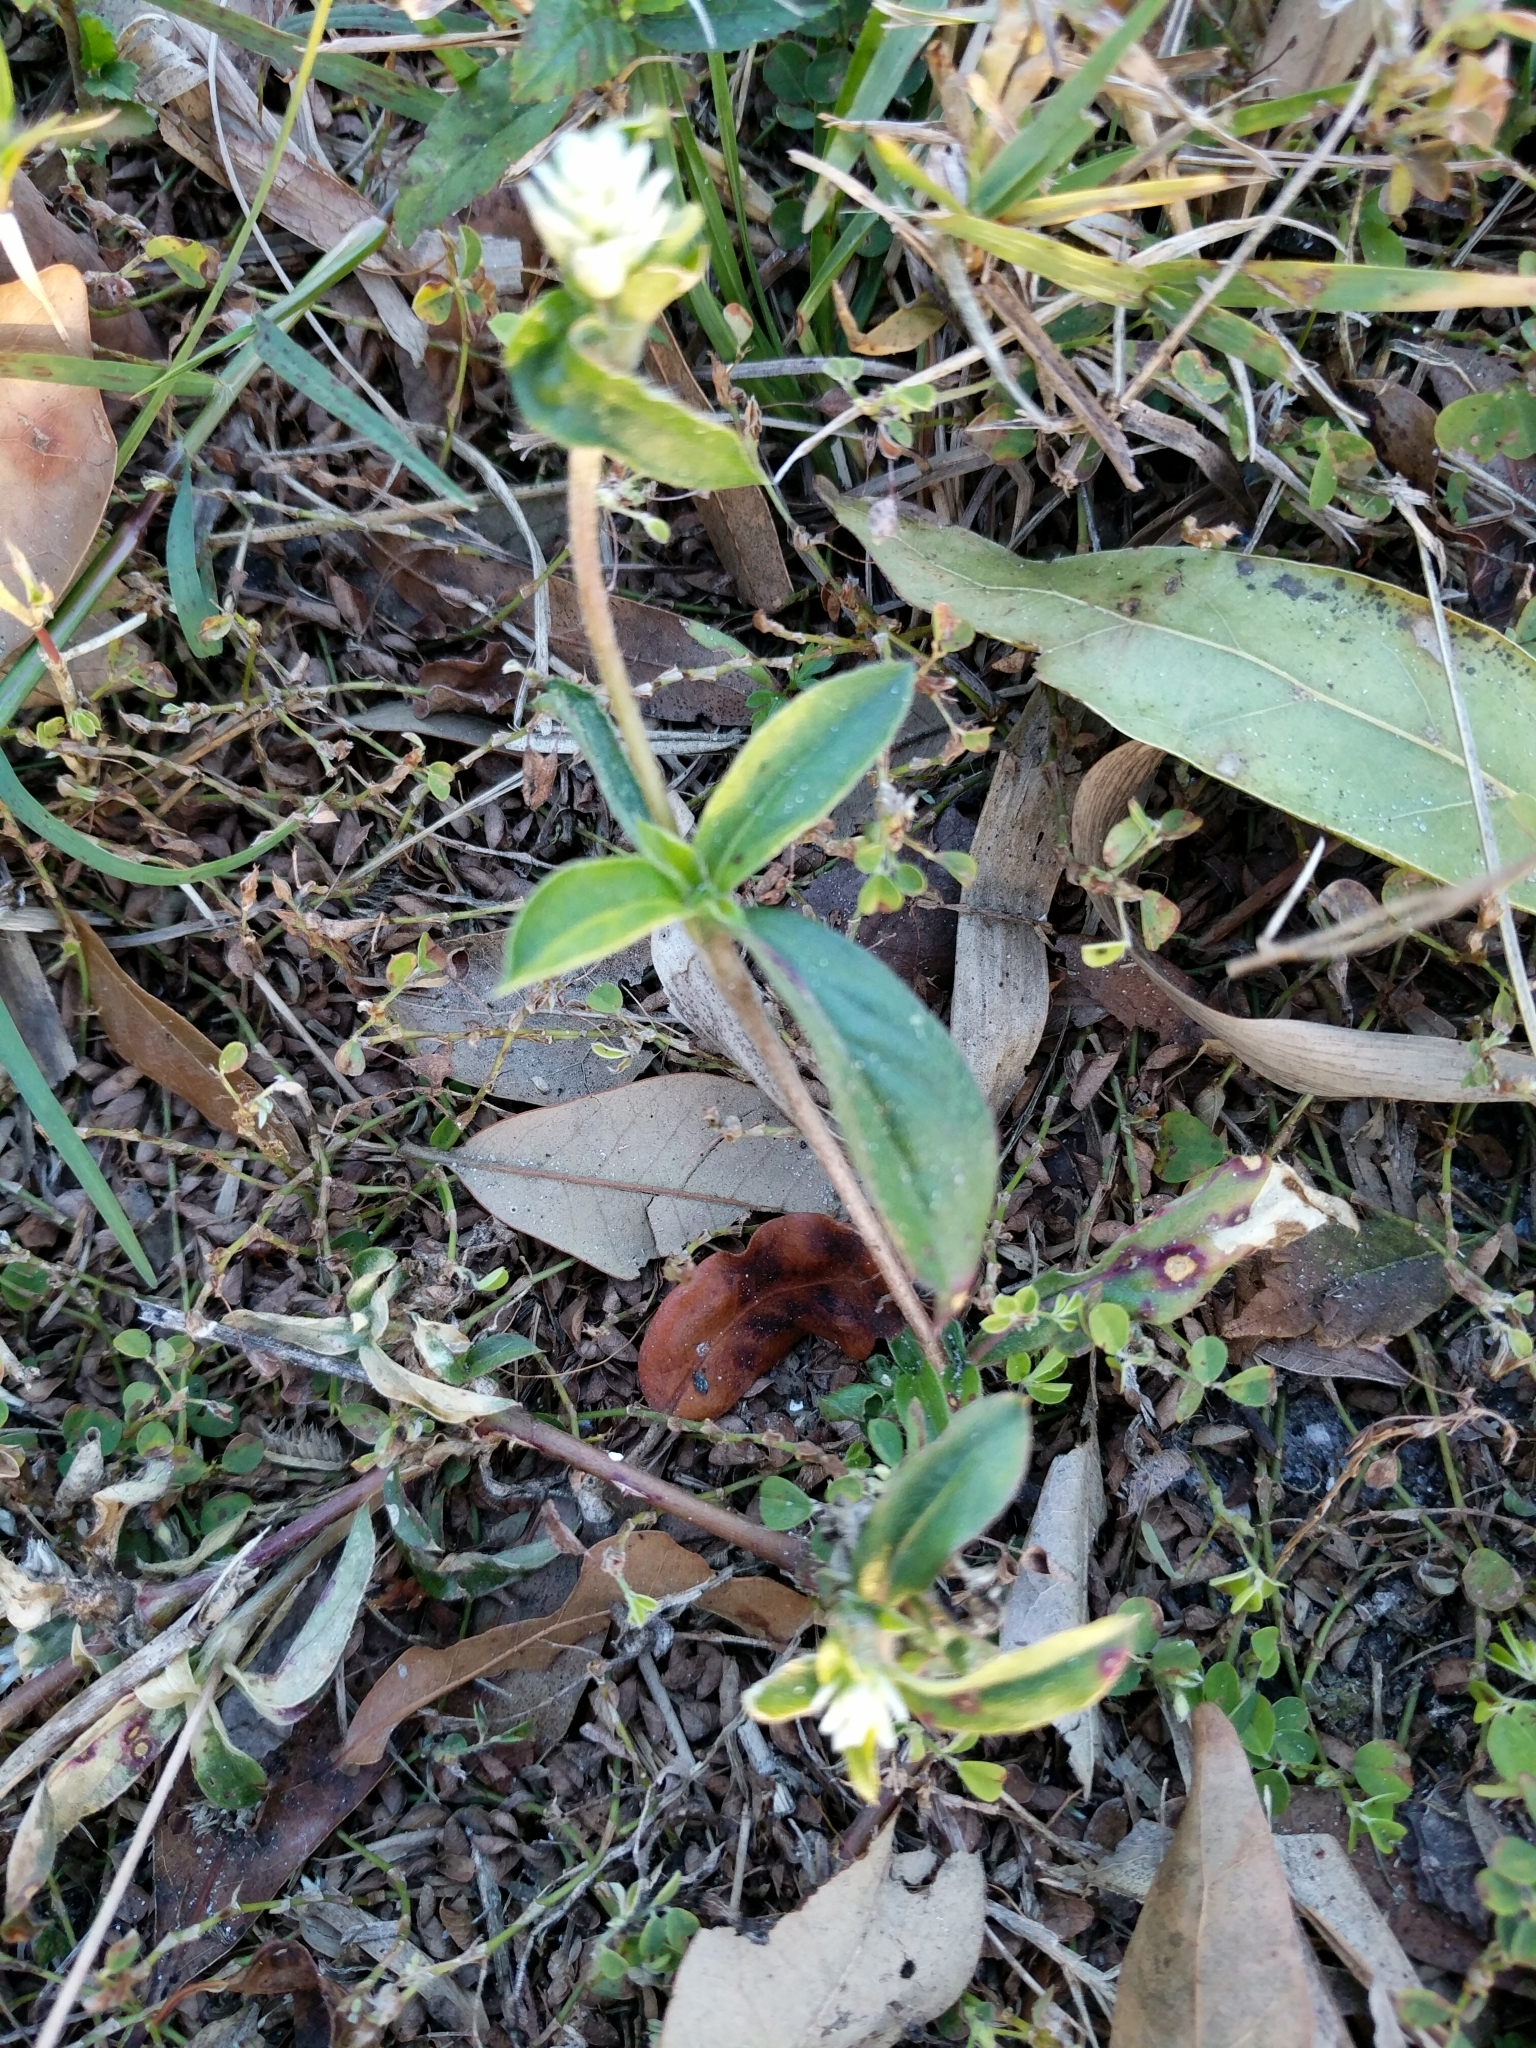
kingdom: Plantae
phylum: Tracheophyta
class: Magnoliopsida
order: Caryophyllales
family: Amaranthaceae
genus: Gomphrena
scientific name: Gomphrena serrata
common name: Arrasa con todo
